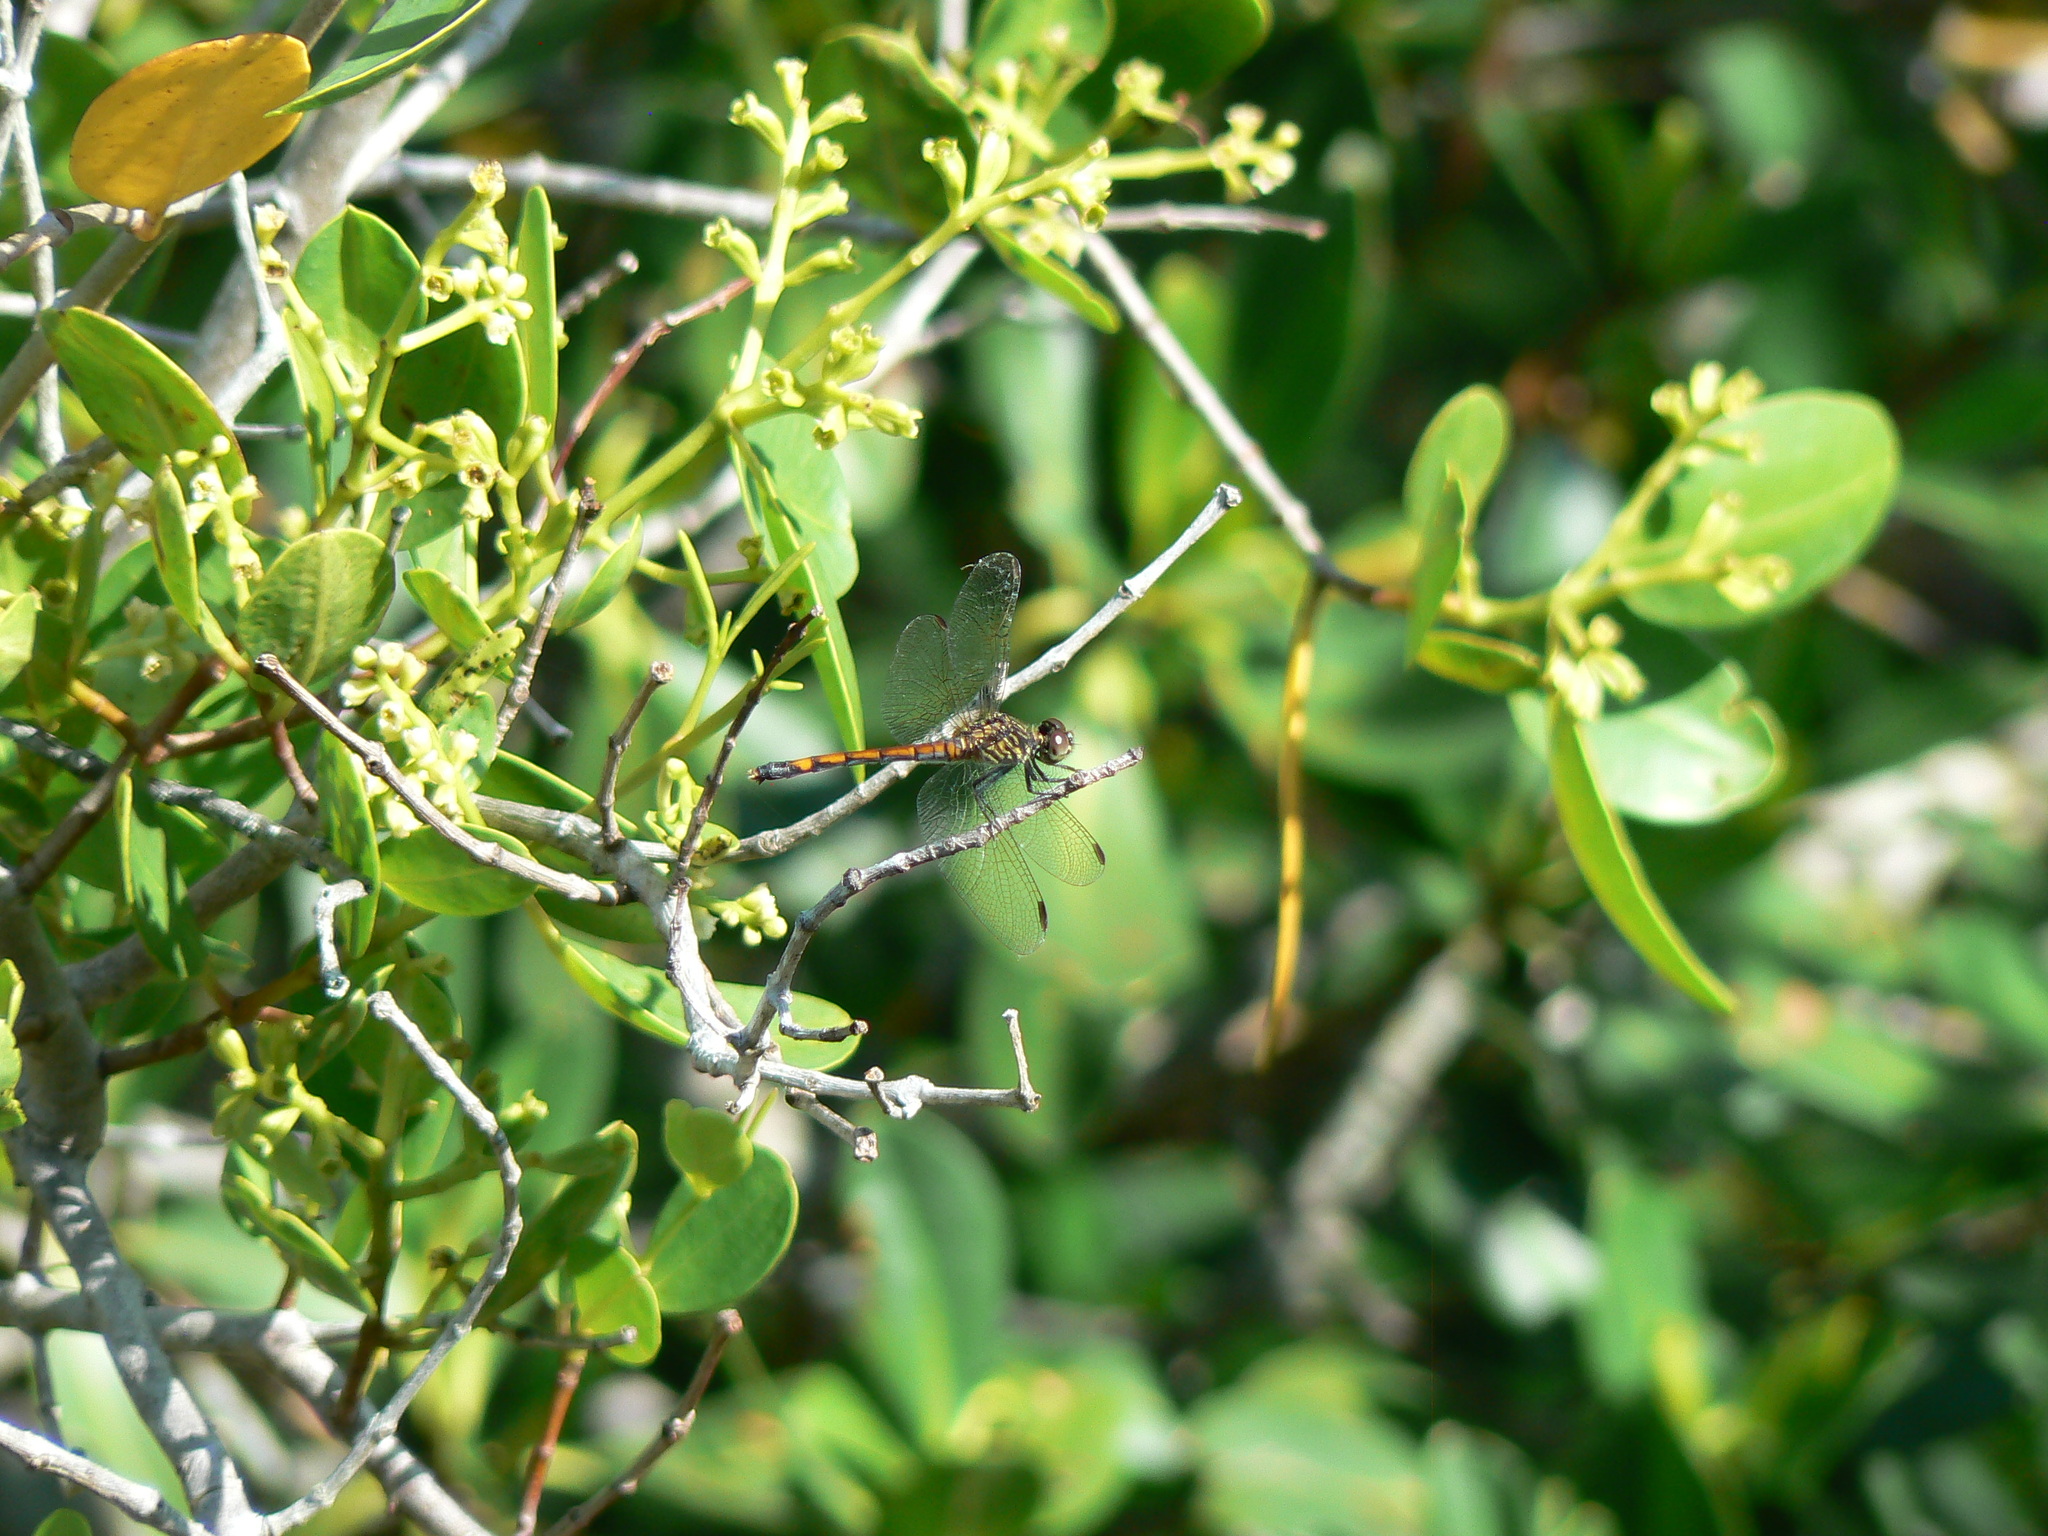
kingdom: Animalia
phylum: Arthropoda
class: Insecta
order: Odonata
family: Libellulidae
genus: Erythrodiplax
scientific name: Erythrodiplax berenice
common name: Seaside dragonlet
